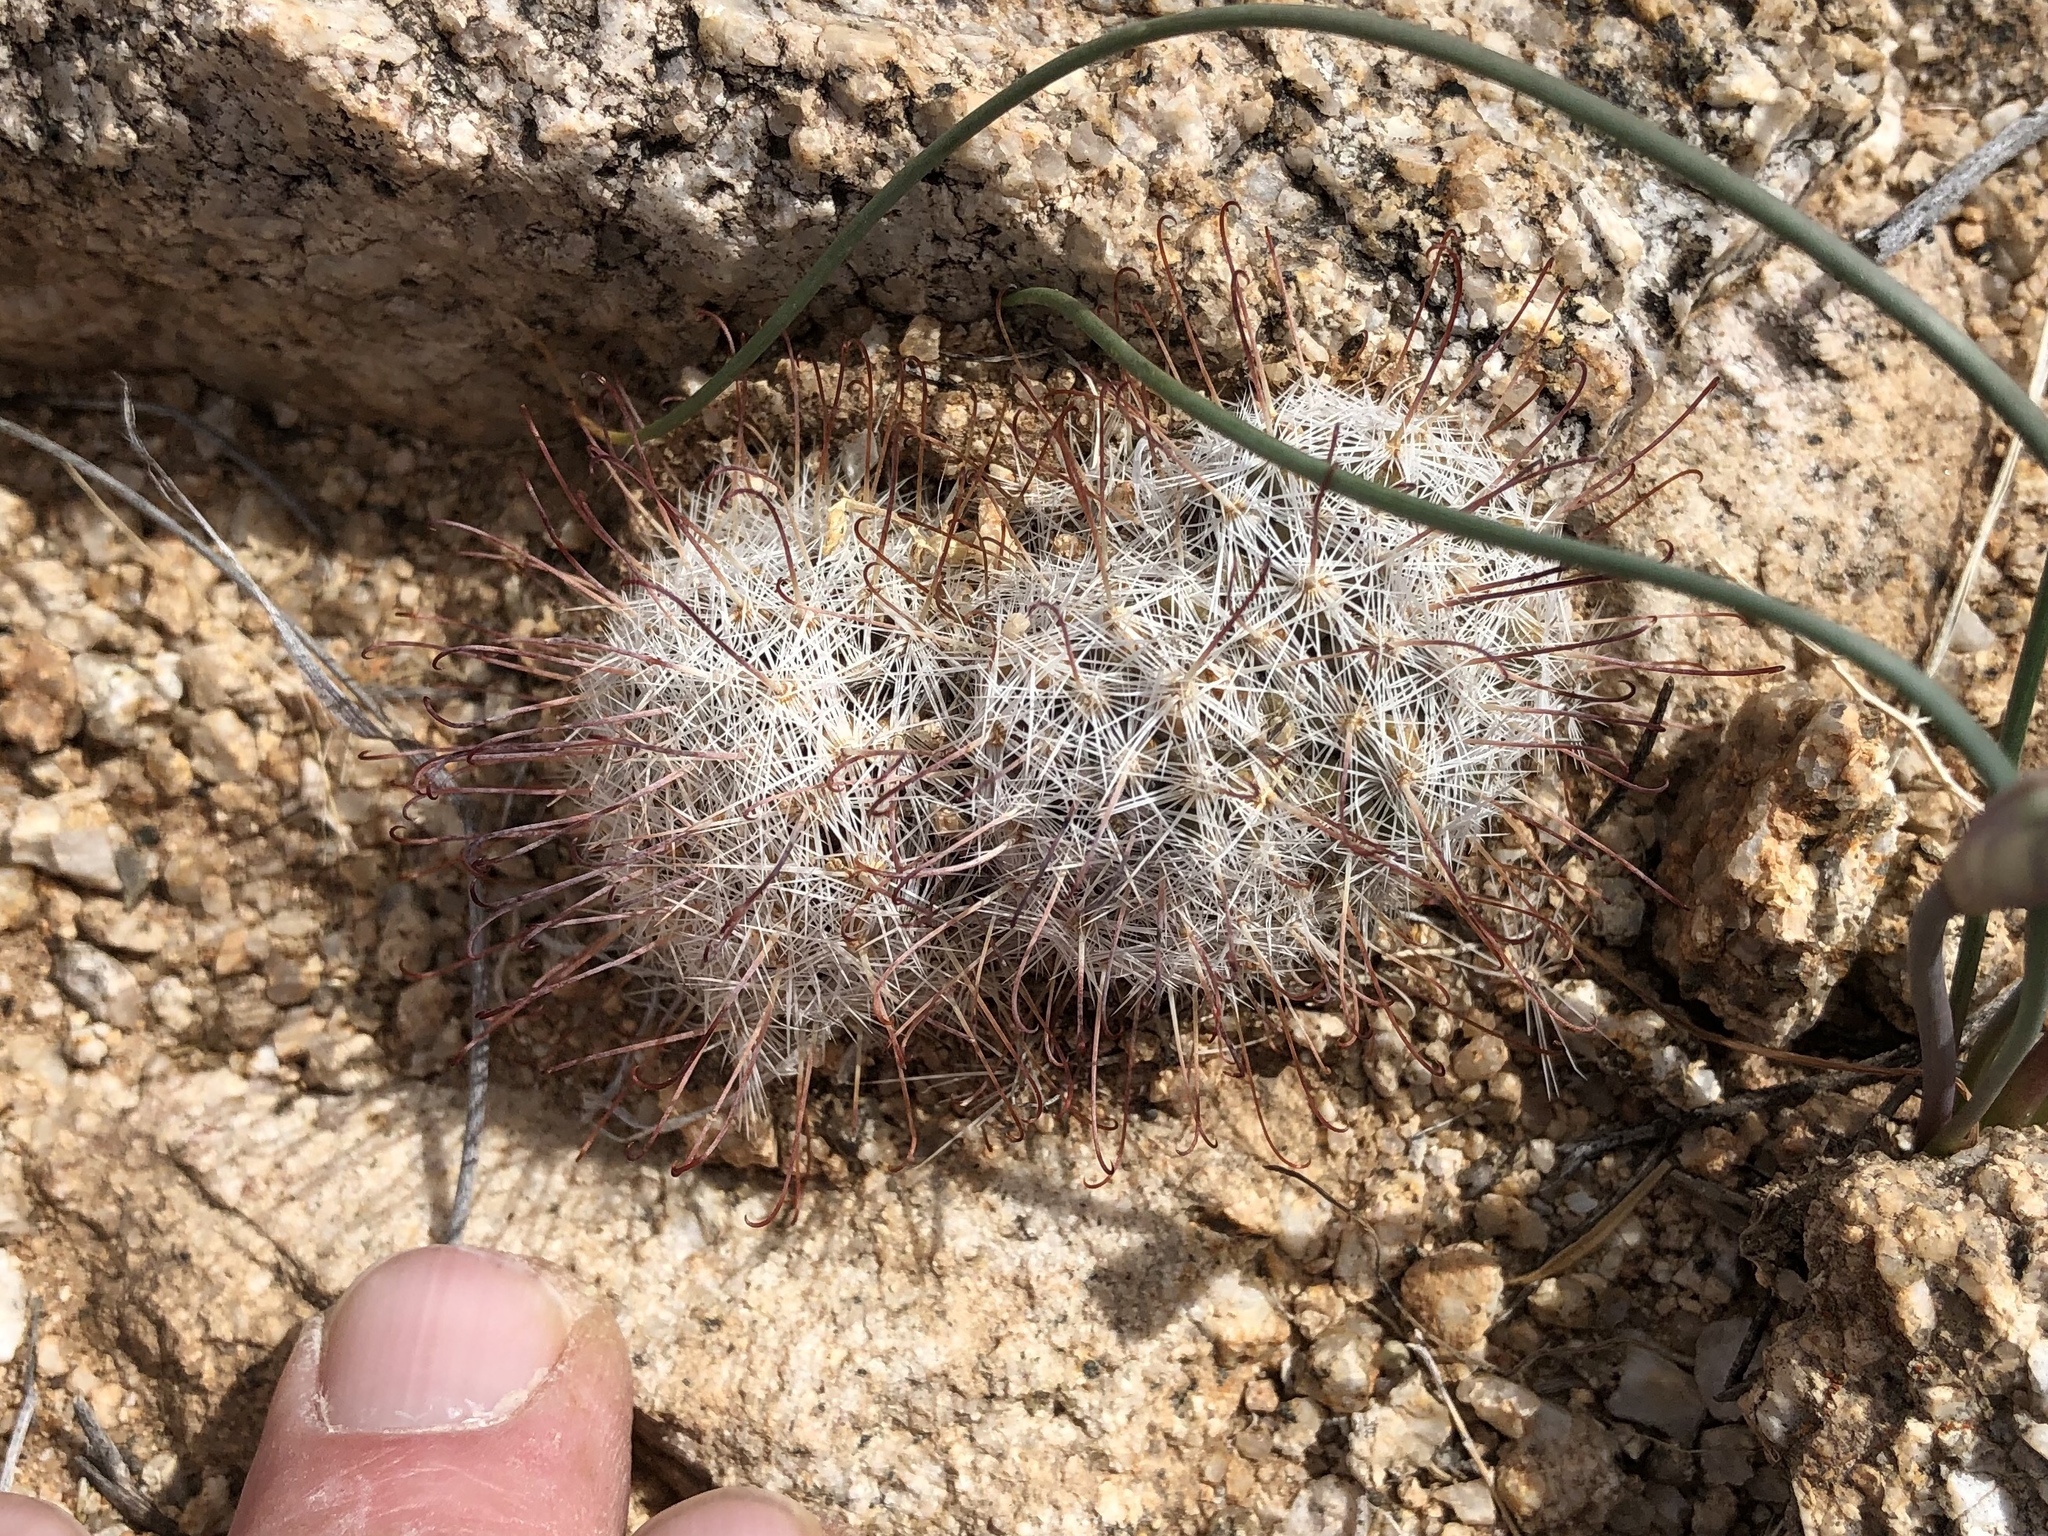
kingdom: Plantae
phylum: Tracheophyta
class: Magnoliopsida
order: Caryophyllales
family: Cactaceae
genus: Cochemiea
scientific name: Cochemiea grahamii
